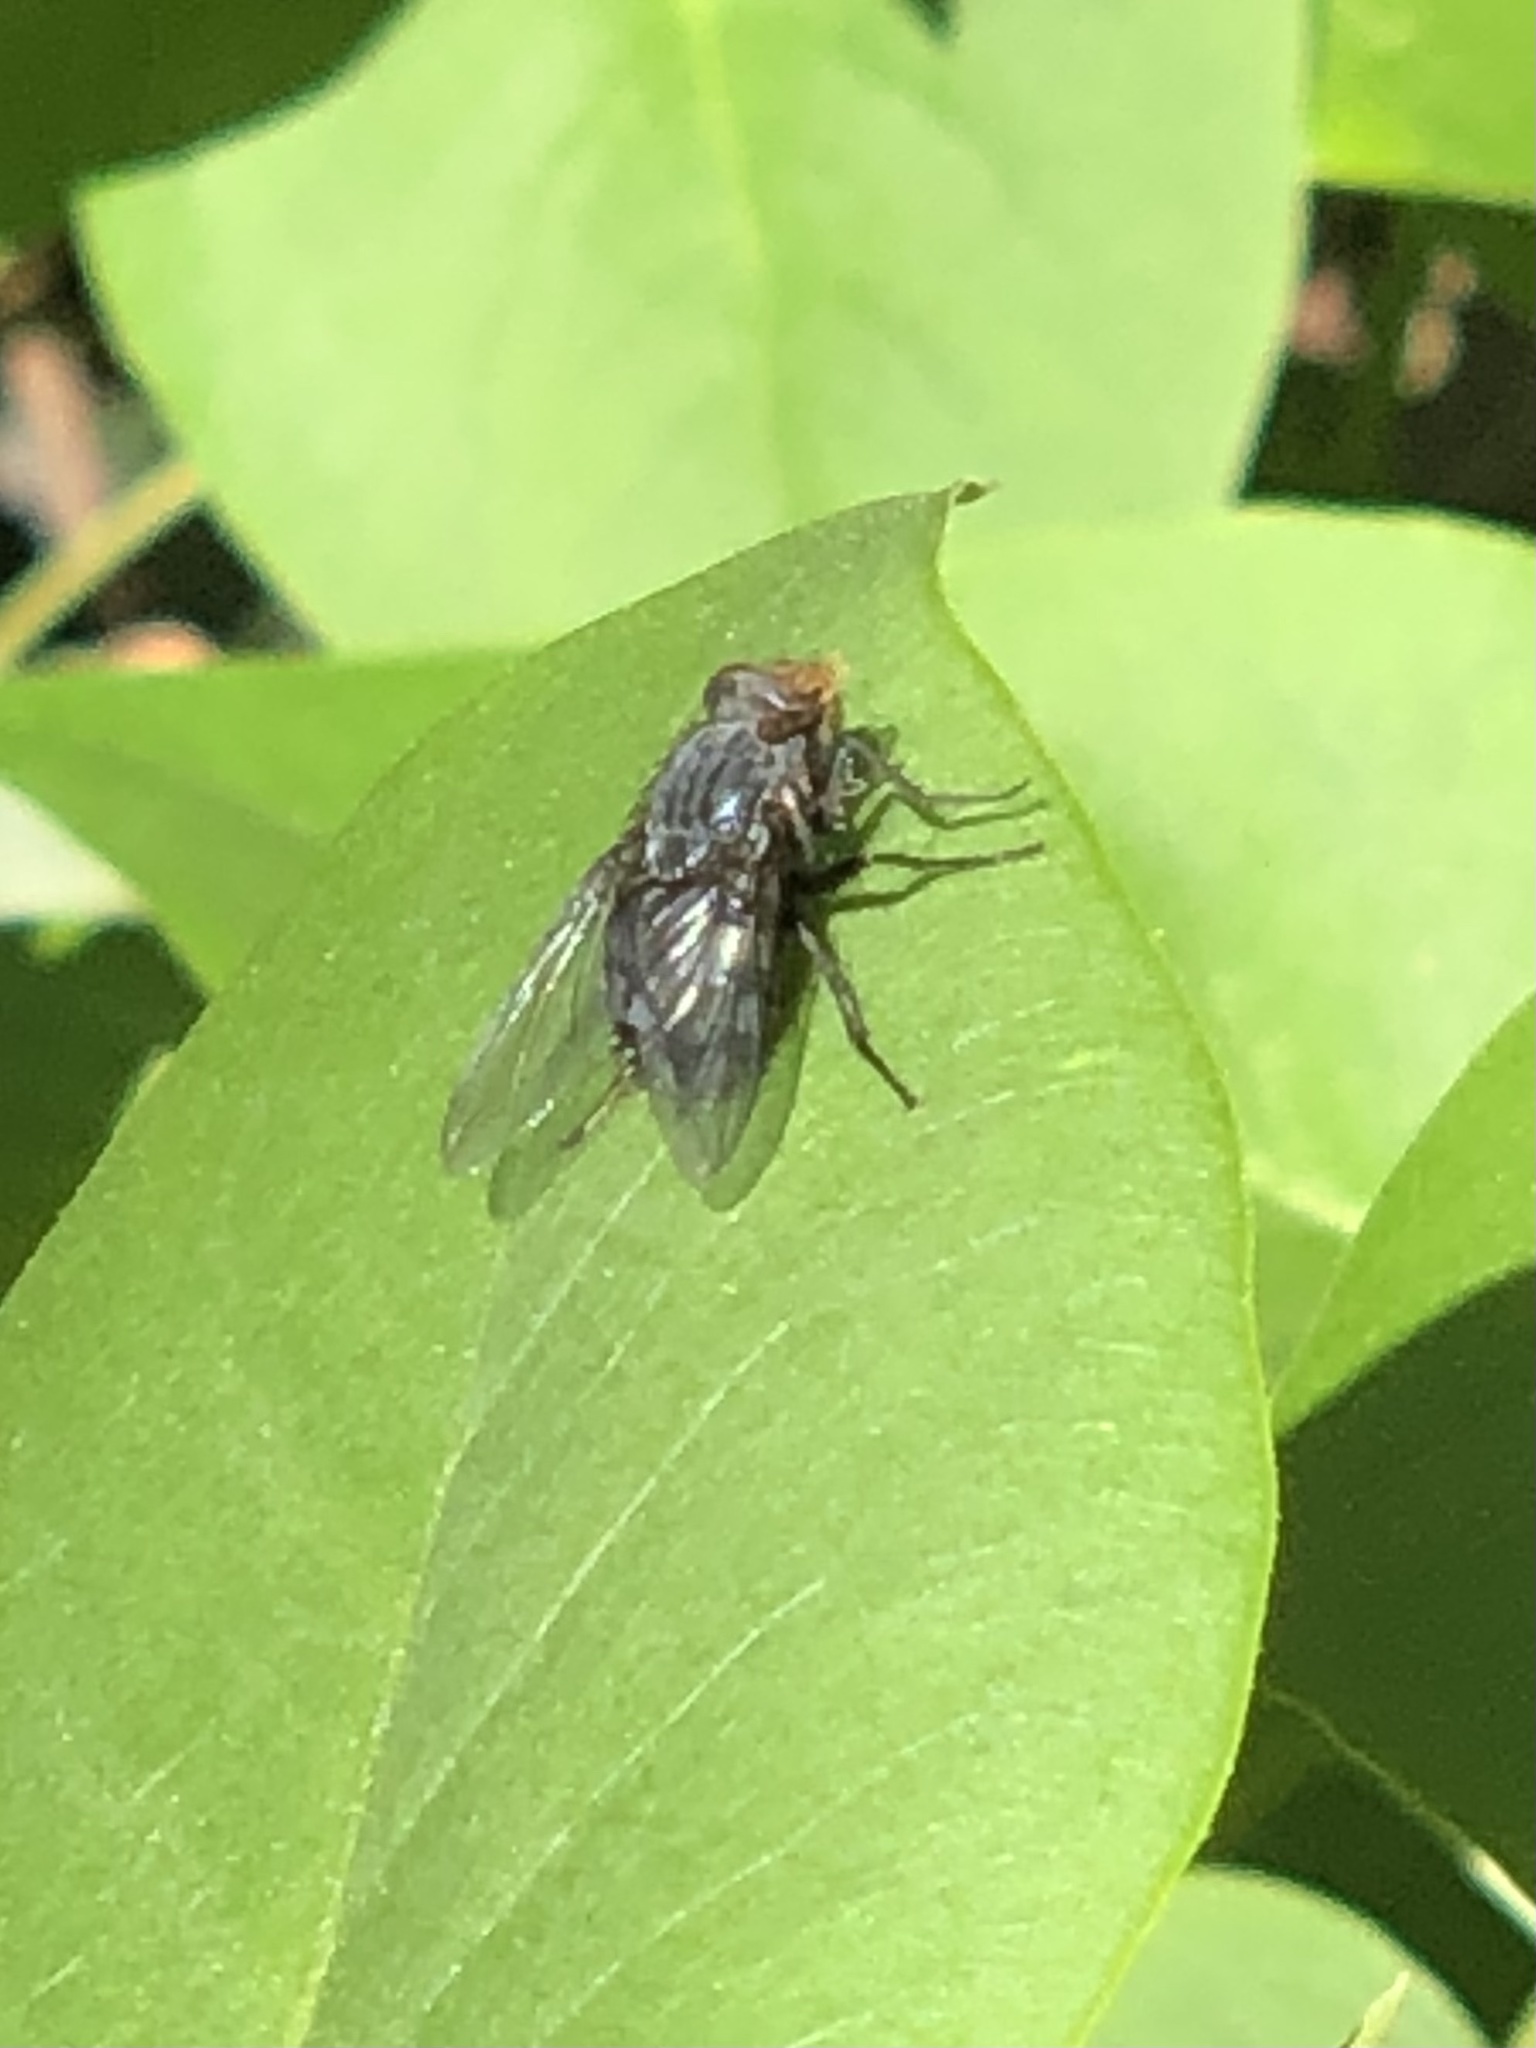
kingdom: Animalia
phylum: Arthropoda
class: Insecta
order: Diptera
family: Calliphoridae
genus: Calliphora
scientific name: Calliphora vicina
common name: Common blow flie
